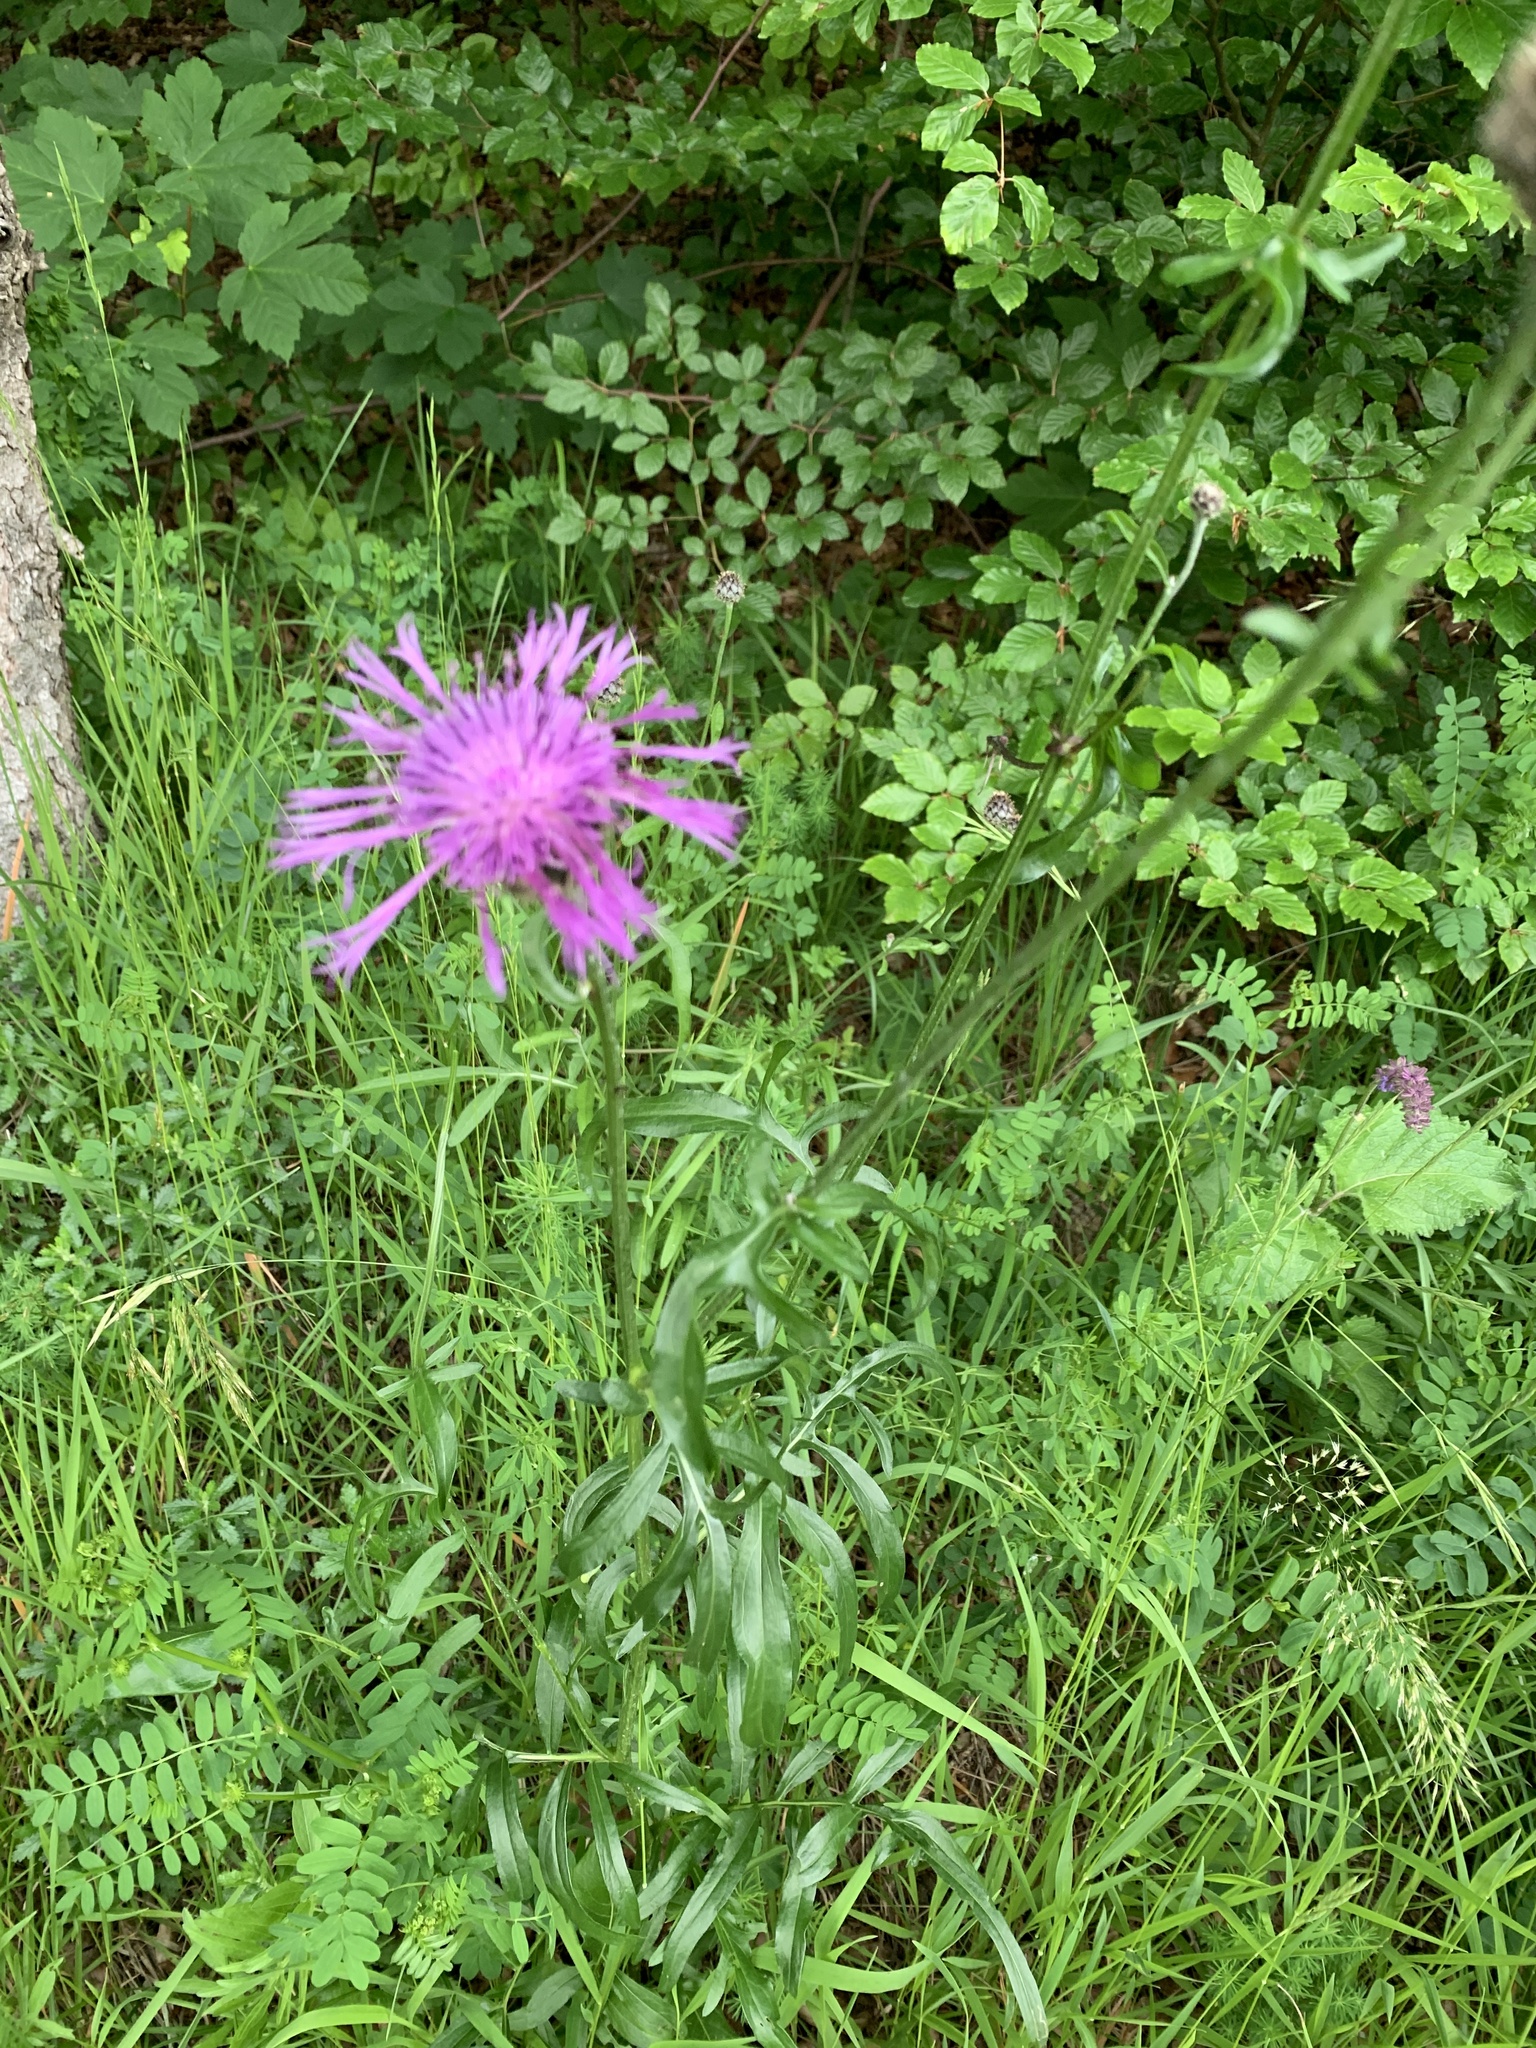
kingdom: Plantae
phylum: Tracheophyta
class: Magnoliopsida
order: Asterales
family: Asteraceae
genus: Centaurea
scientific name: Centaurea scabiosa
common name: Greater knapweed
